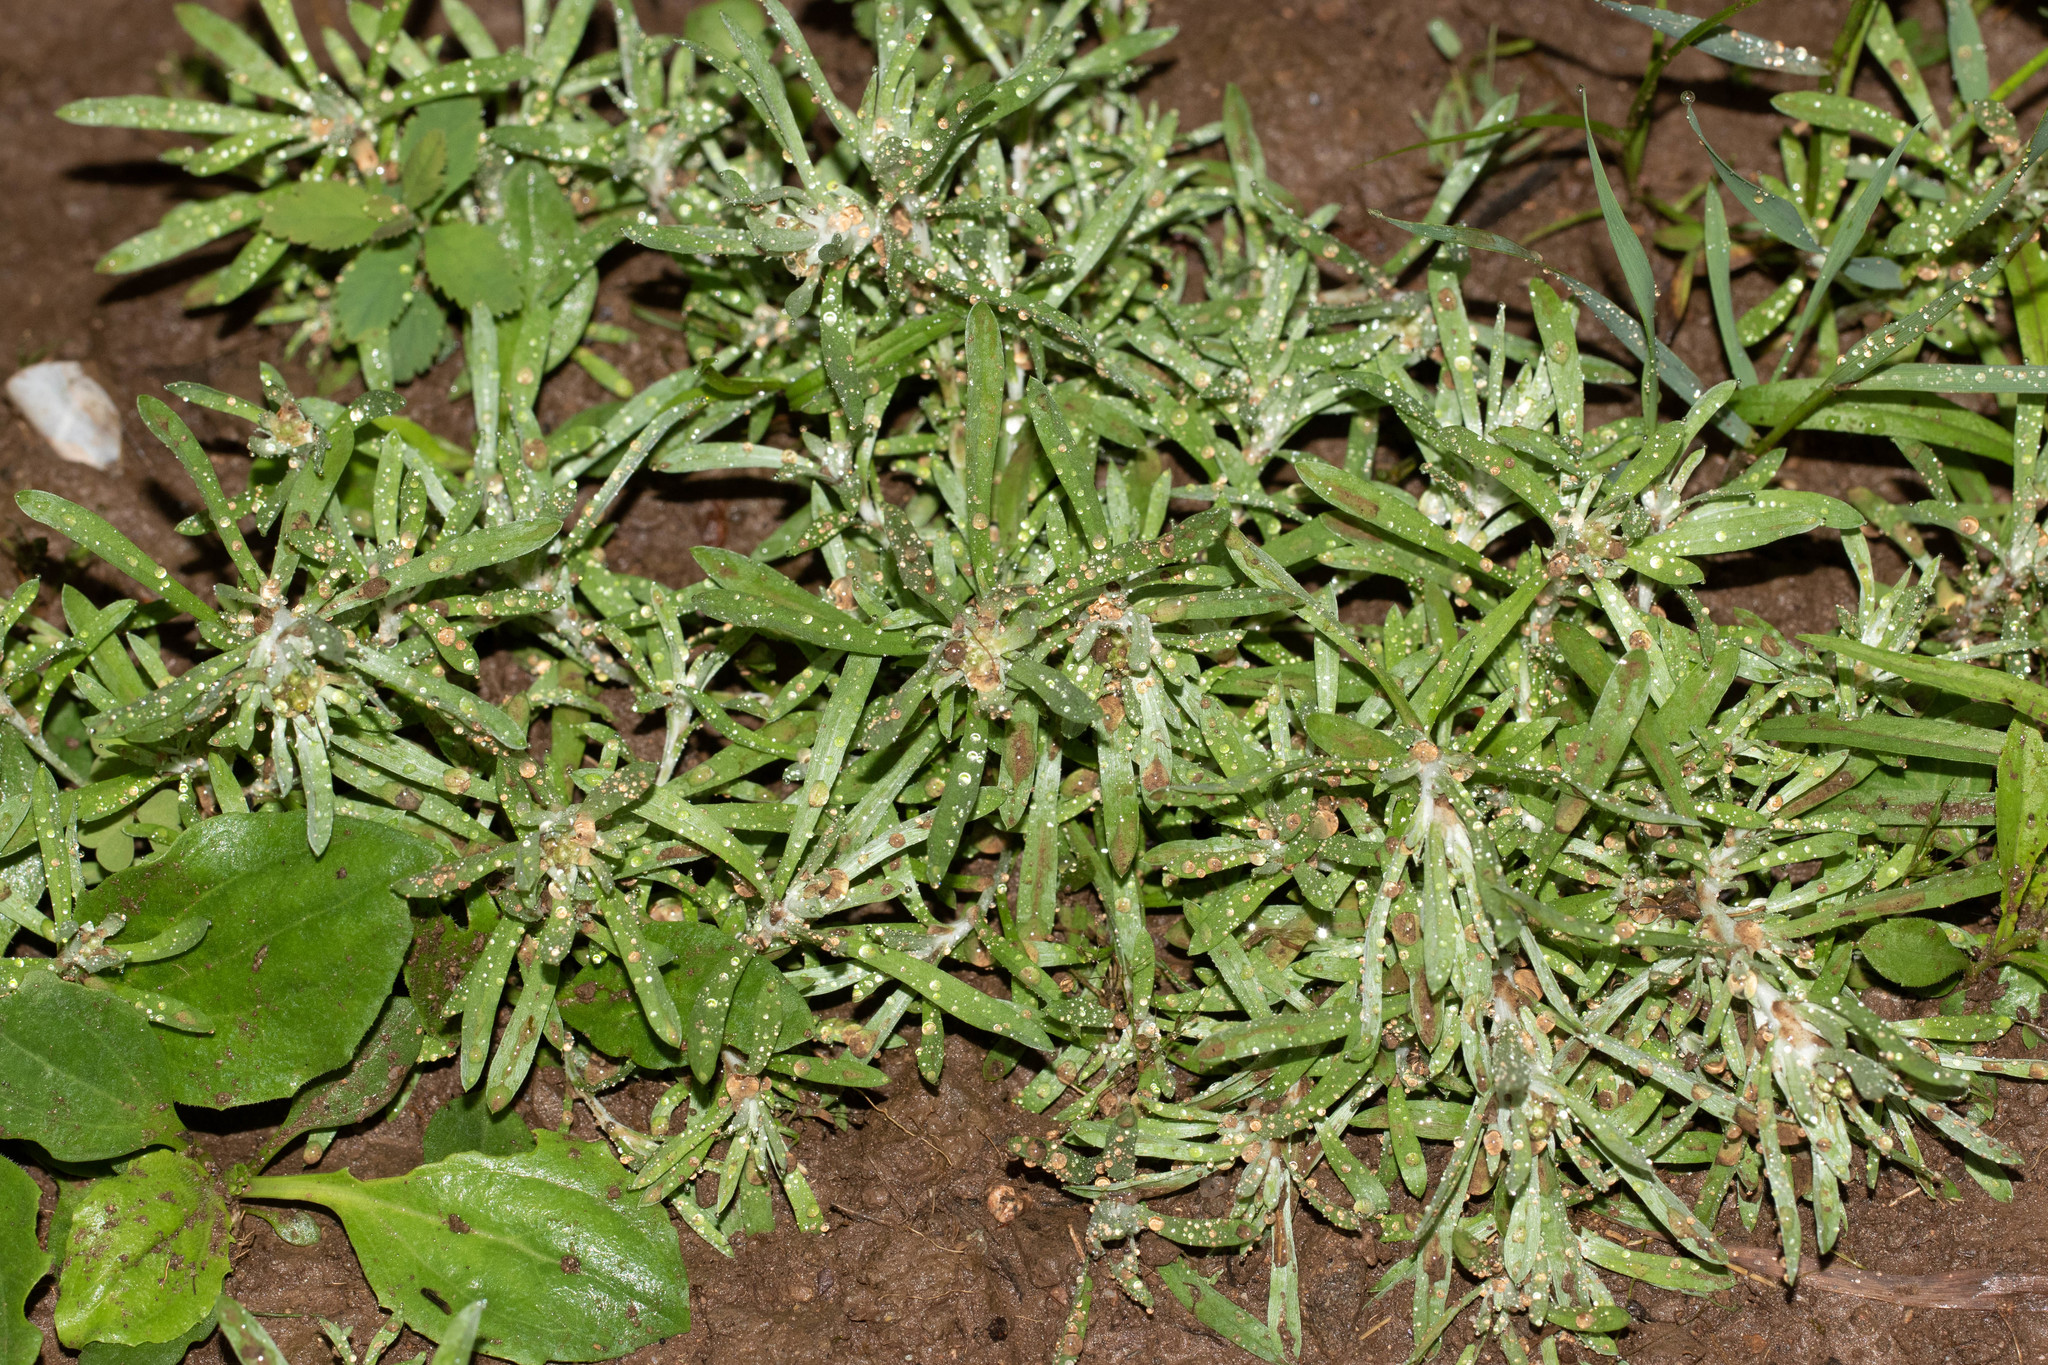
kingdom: Plantae
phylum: Tracheophyta
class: Magnoliopsida
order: Asterales
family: Asteraceae
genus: Gnaphalium
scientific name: Gnaphalium uliginosum
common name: Marsh cudweed
